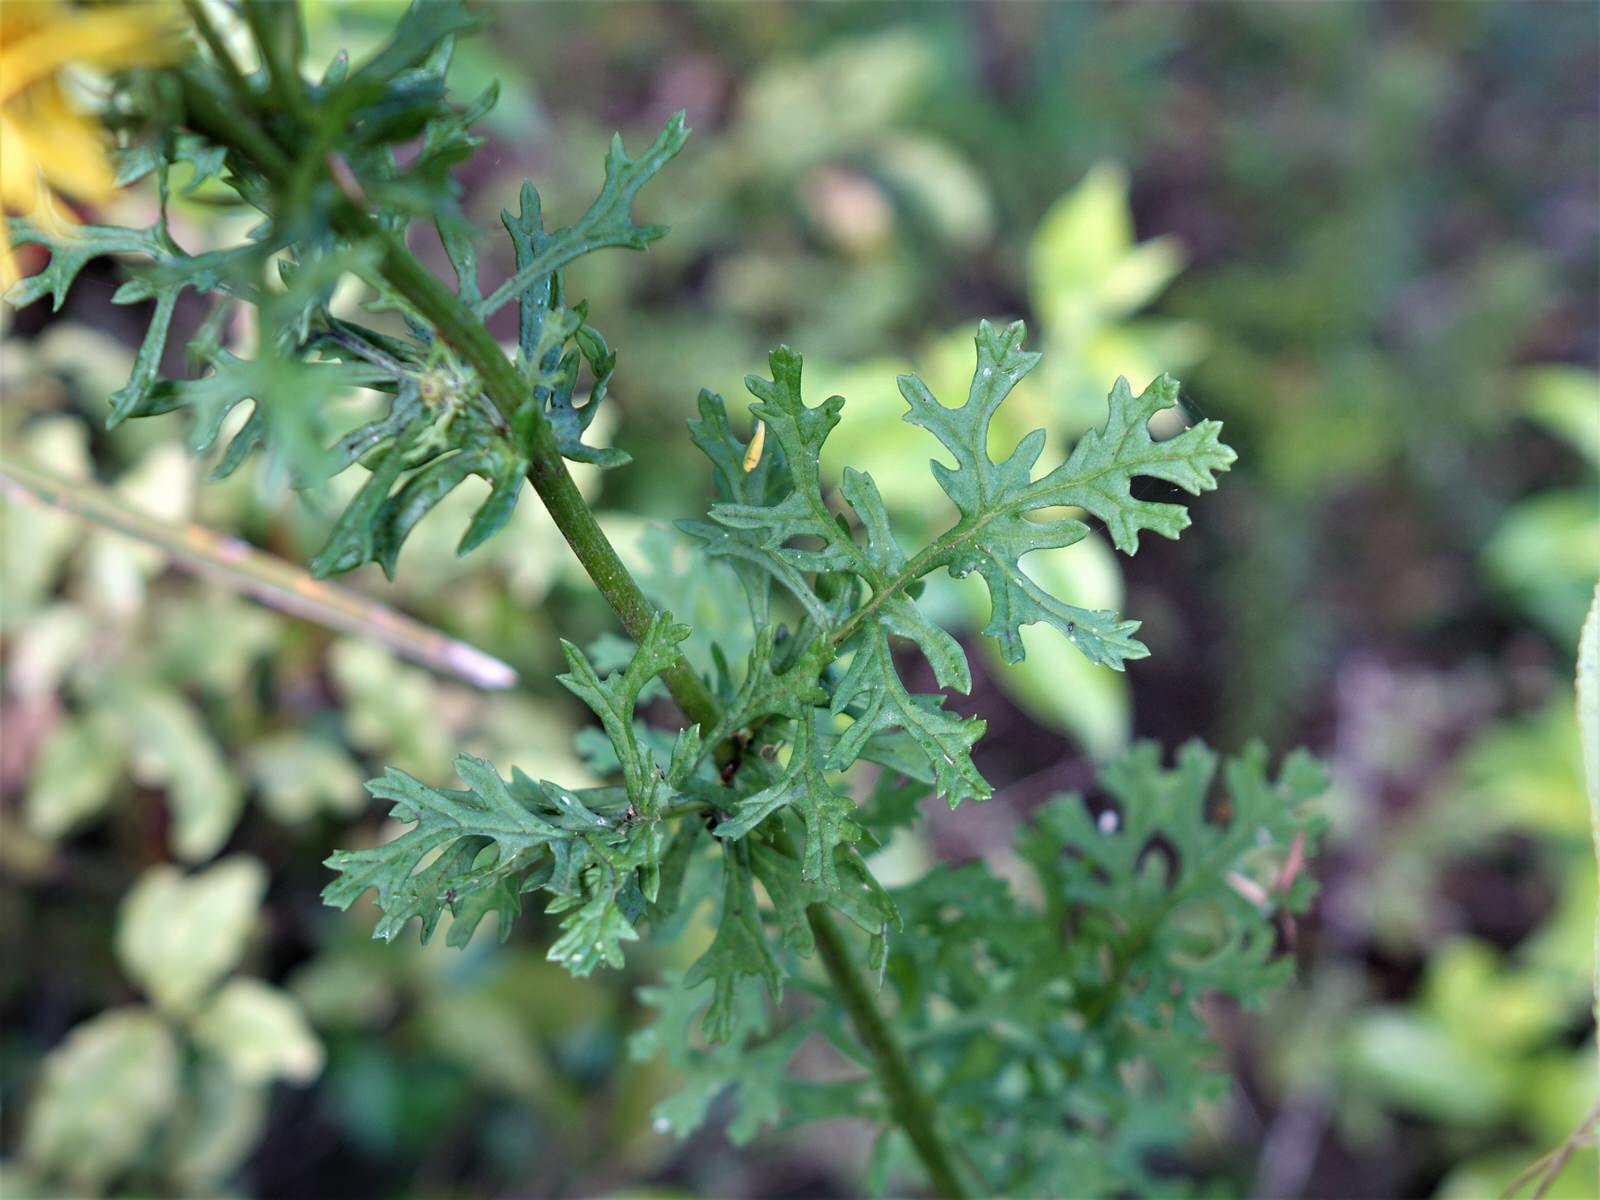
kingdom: Plantae
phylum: Tracheophyta
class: Magnoliopsida
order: Asterales
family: Asteraceae
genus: Jacobaea
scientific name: Jacobaea vulgaris
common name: Stinking willie
